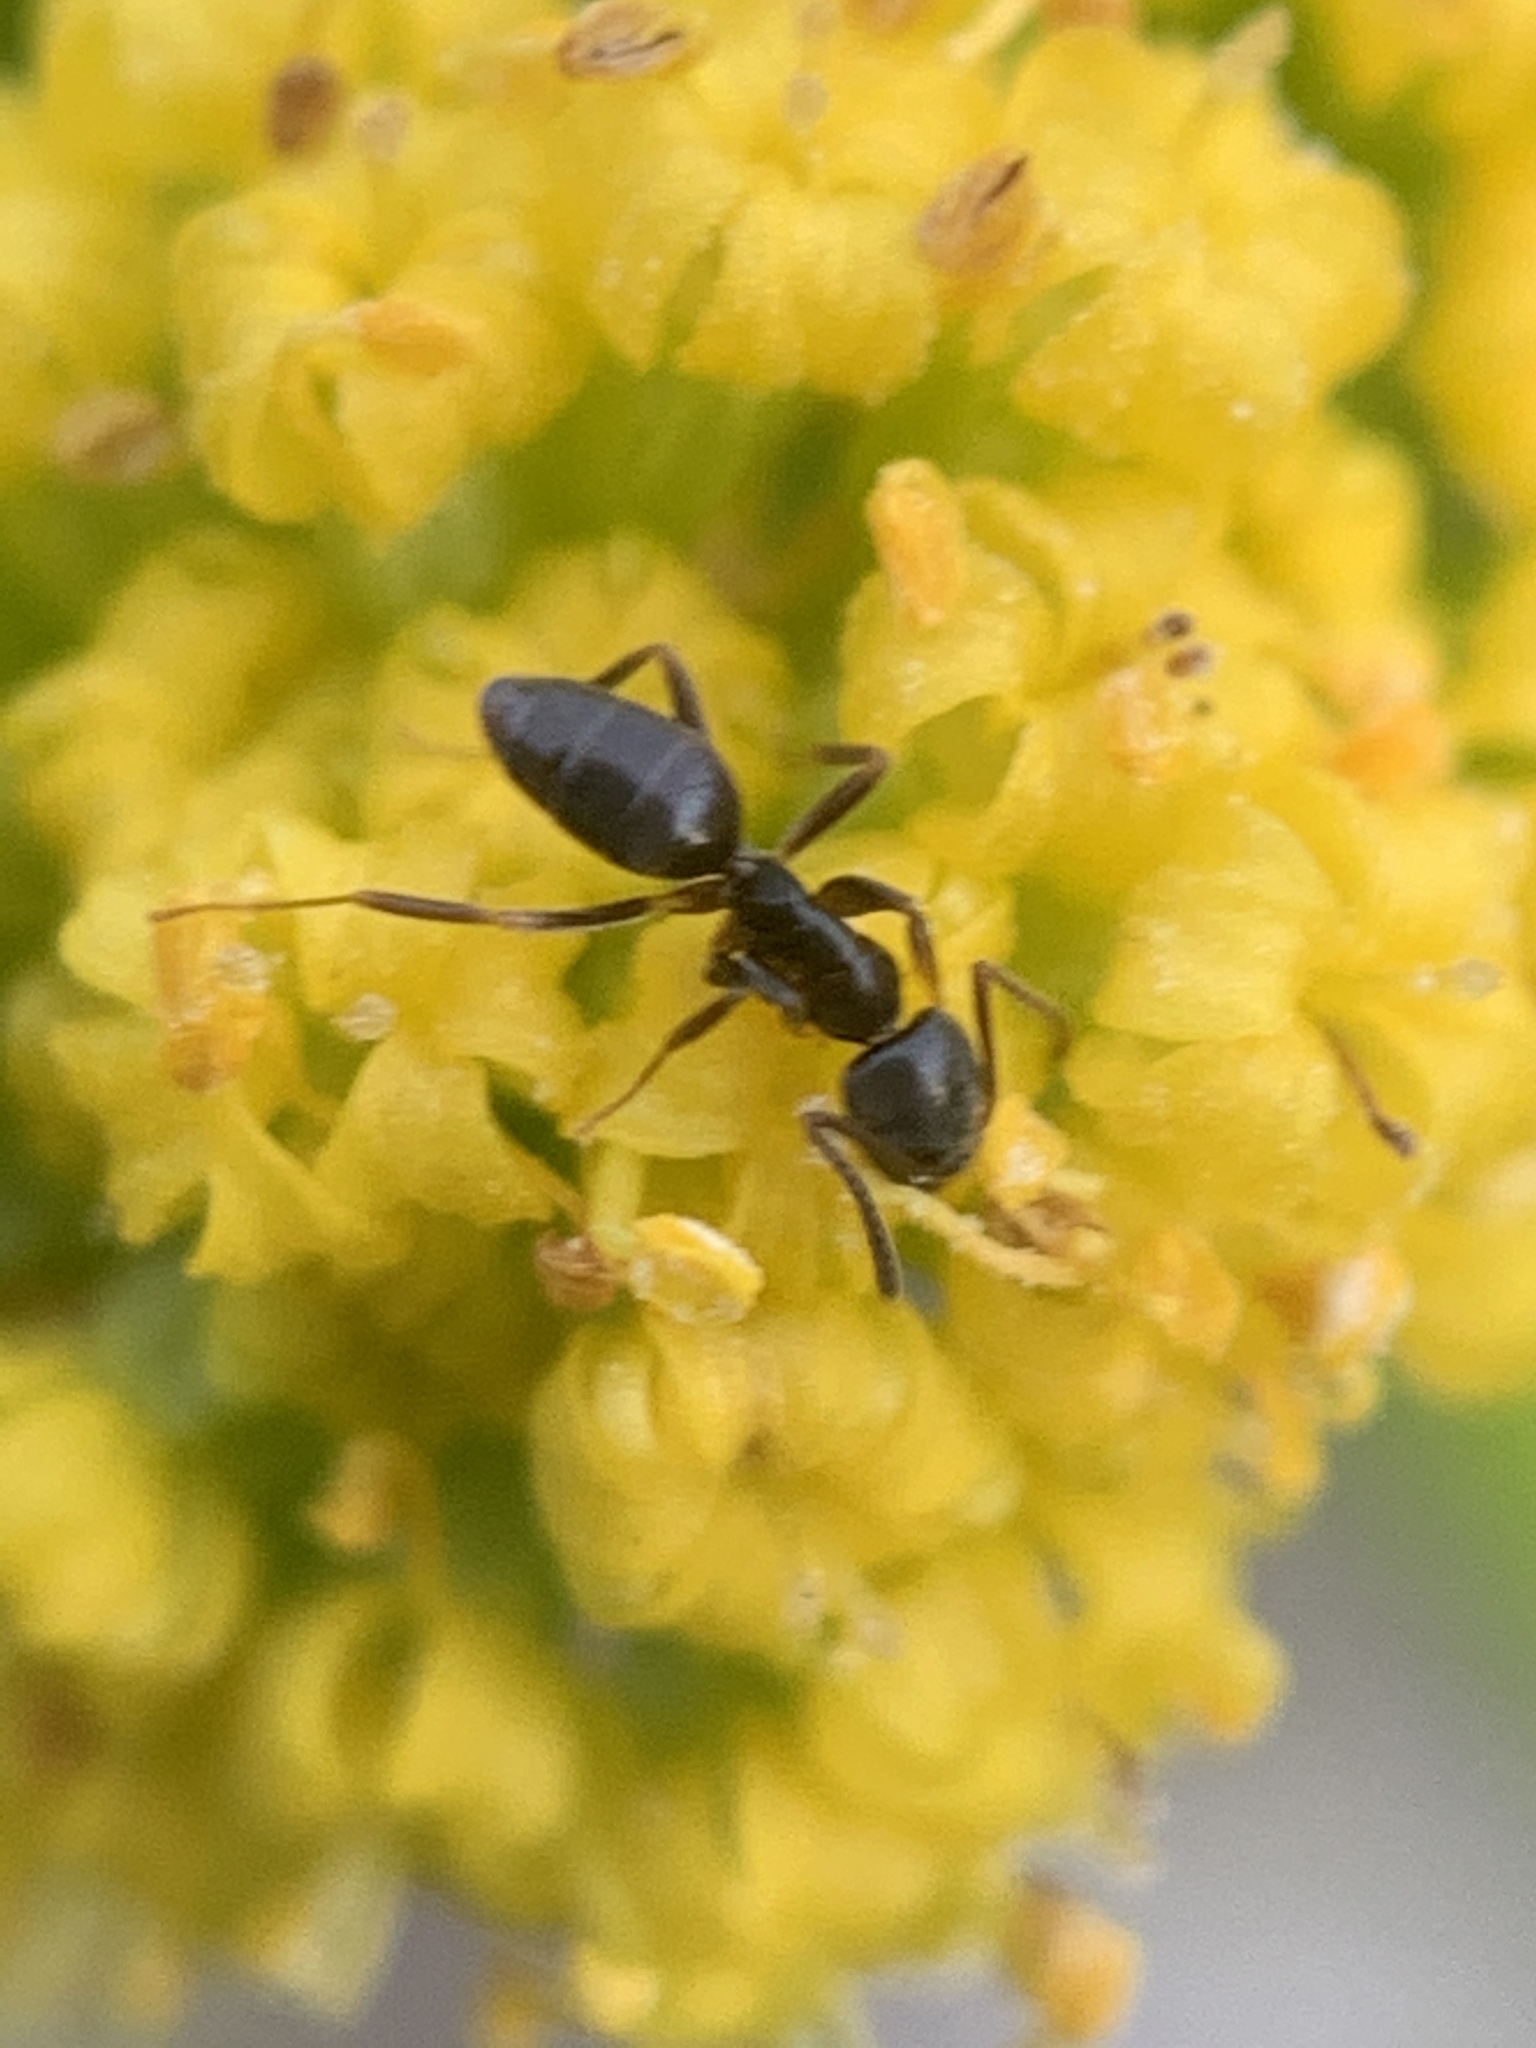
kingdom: Animalia
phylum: Arthropoda
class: Insecta
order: Hymenoptera
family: Formicidae
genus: Tapinoma
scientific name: Tapinoma sessile
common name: Odorous house ant
